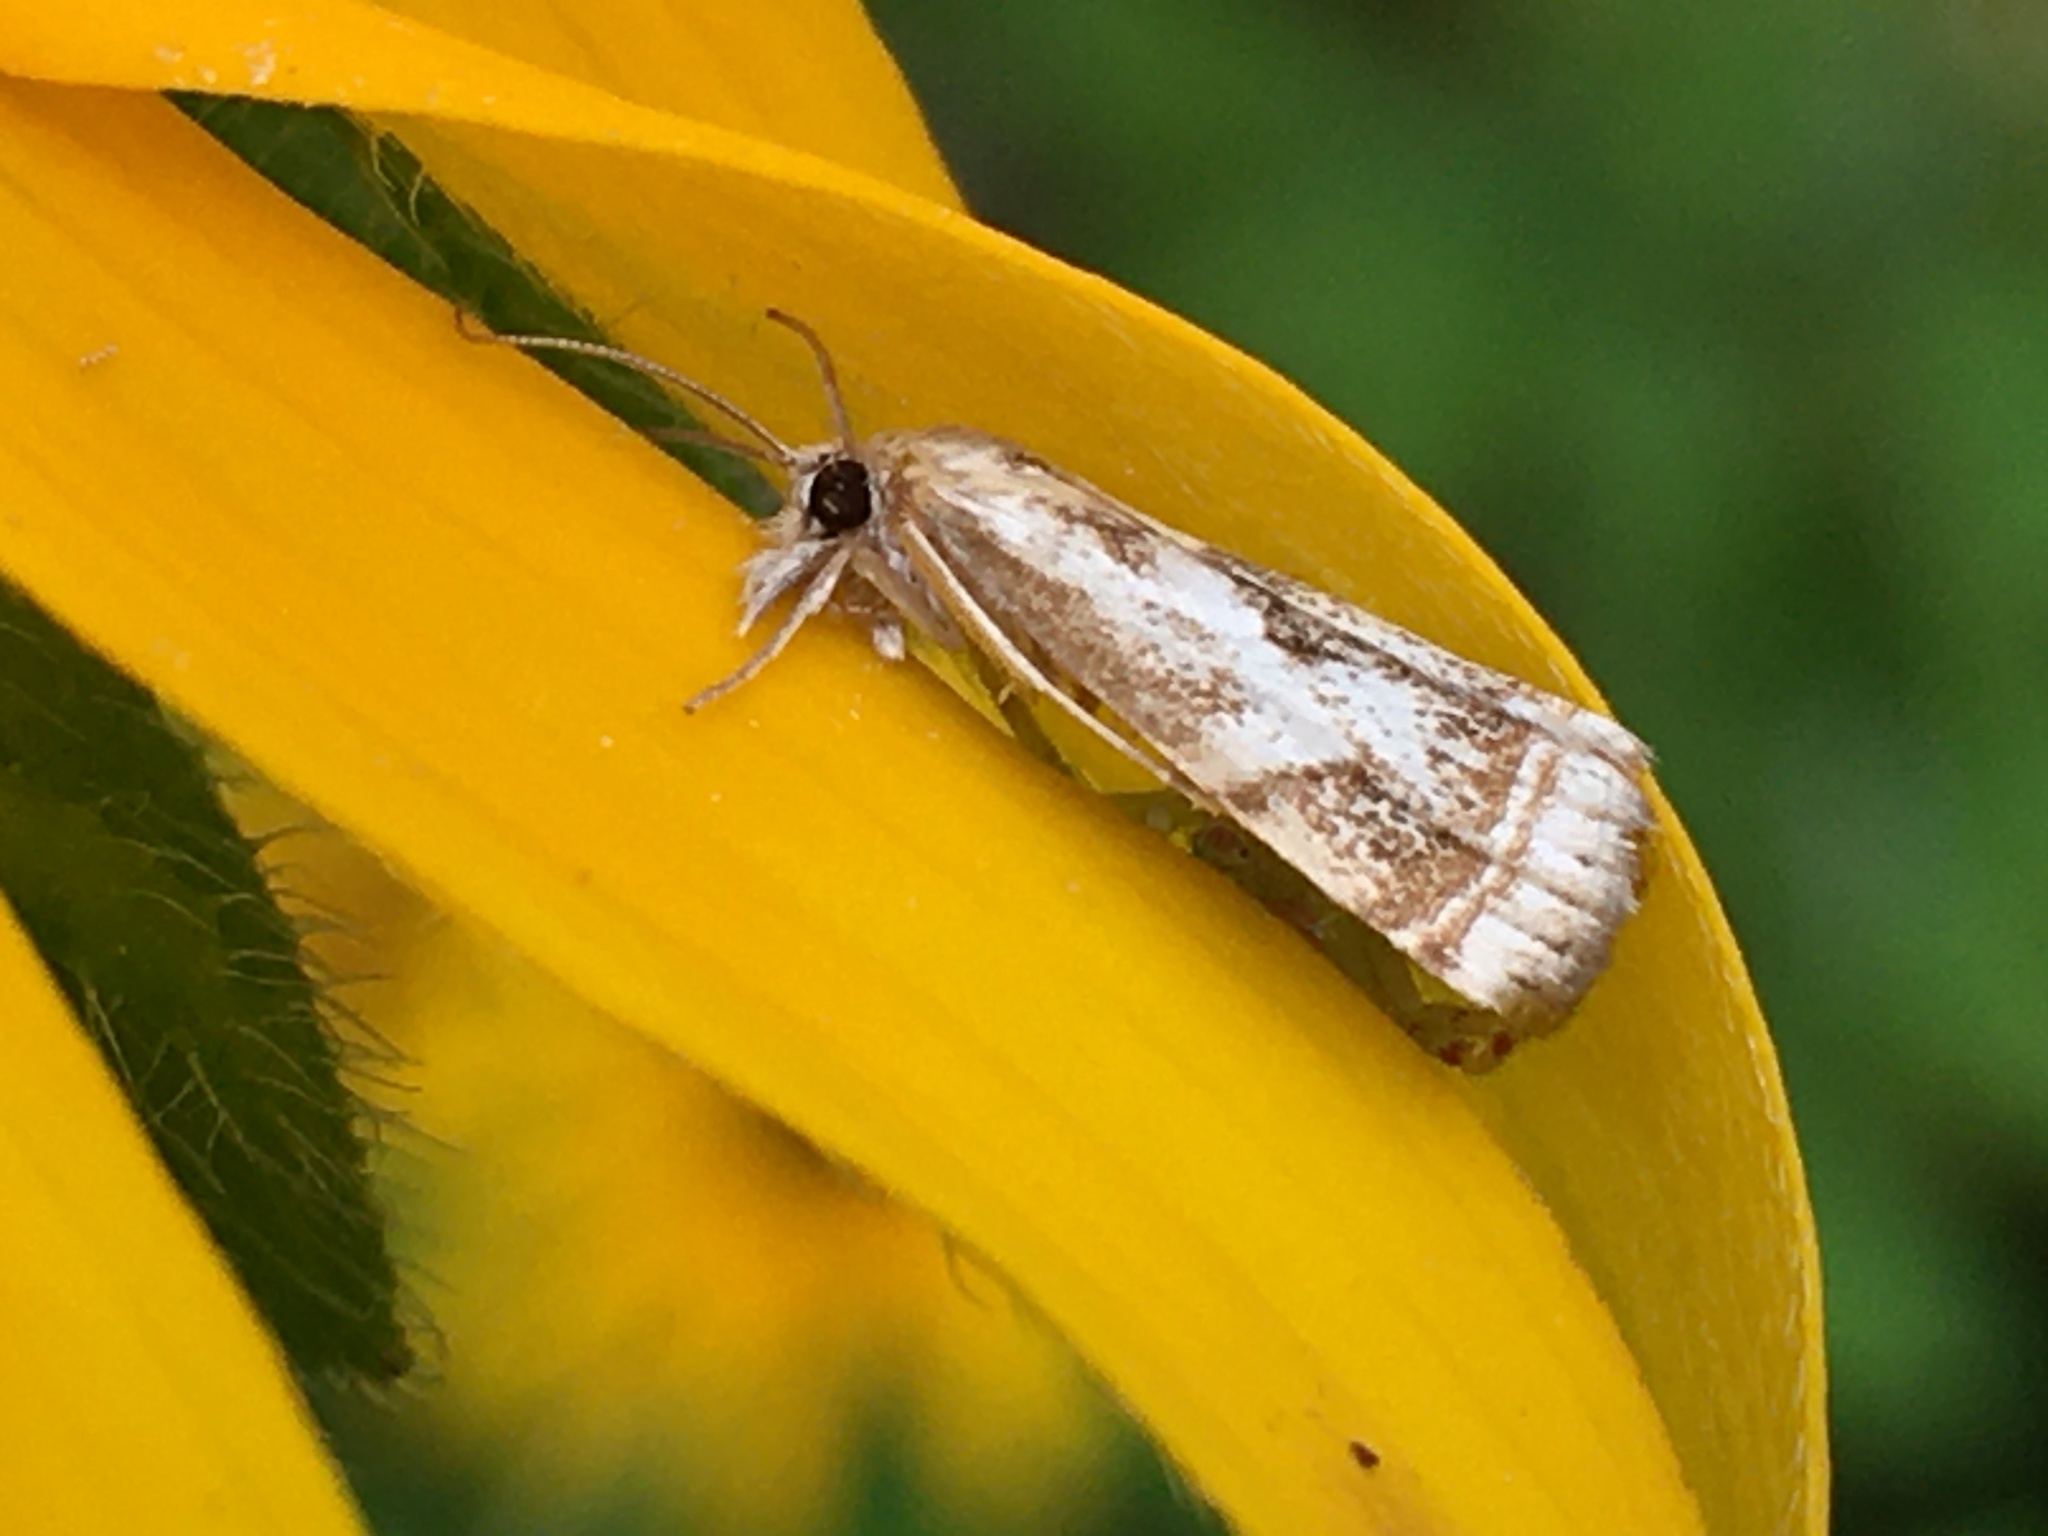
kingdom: Animalia
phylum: Arthropoda
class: Insecta
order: Lepidoptera
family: Crambidae
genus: Microcrambus
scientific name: Microcrambus elegans
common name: Elegant grass-veneer
